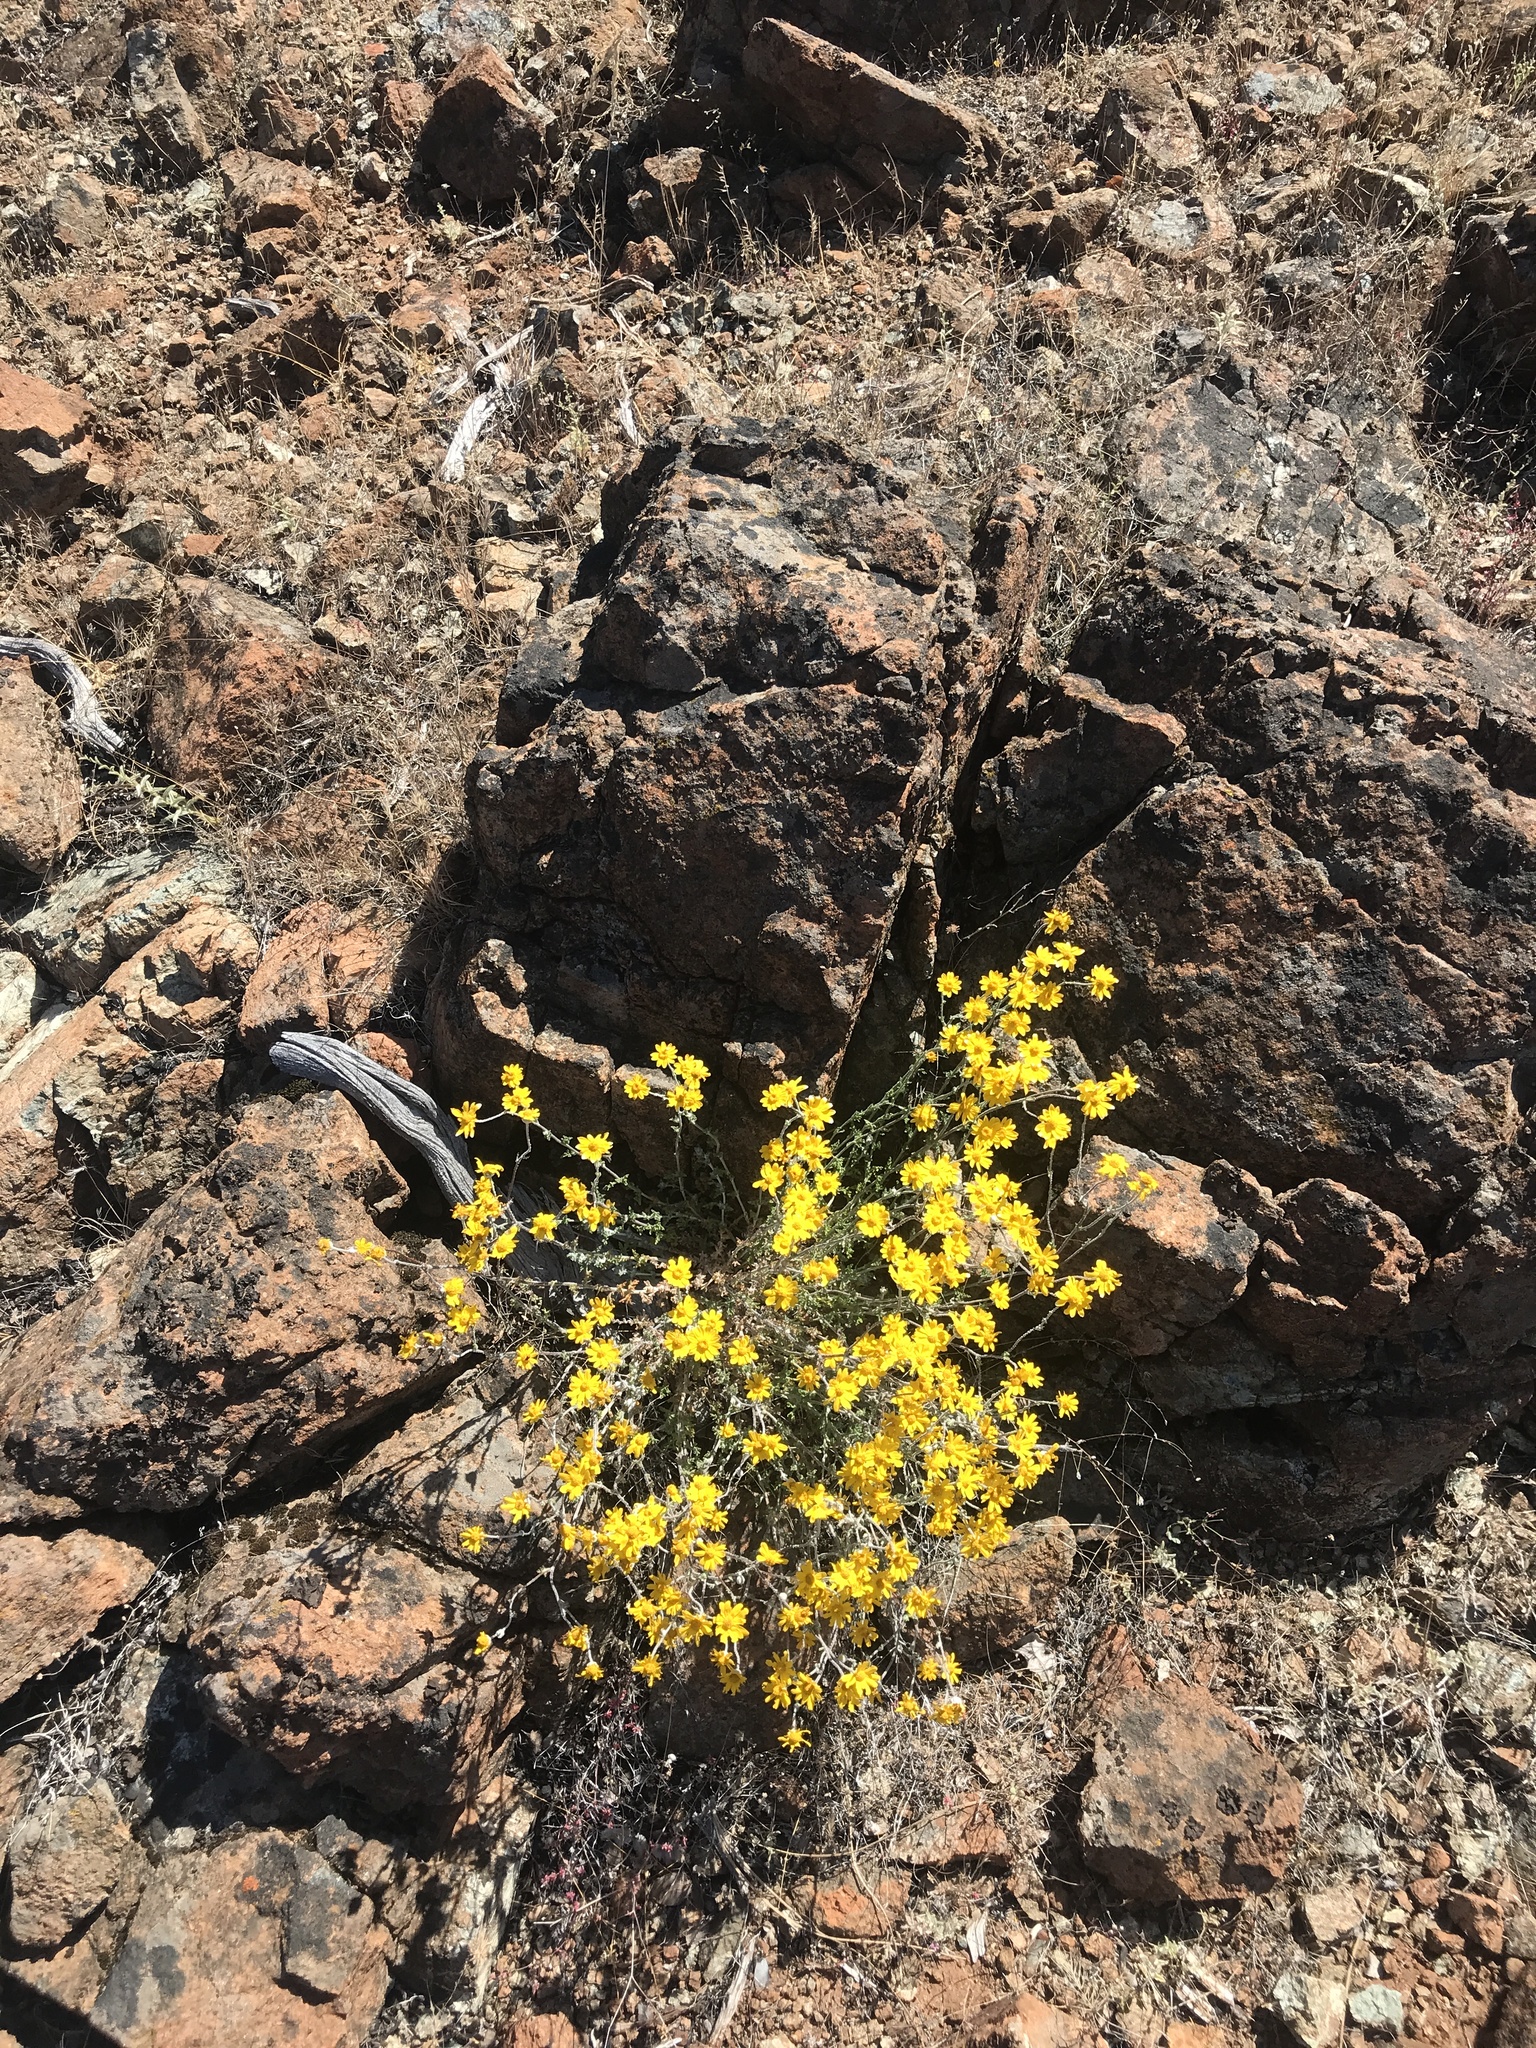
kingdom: Plantae
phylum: Tracheophyta
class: Magnoliopsida
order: Asterales
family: Asteraceae
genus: Eriophyllum
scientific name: Eriophyllum lanatum
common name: Common woolly-sunflower
